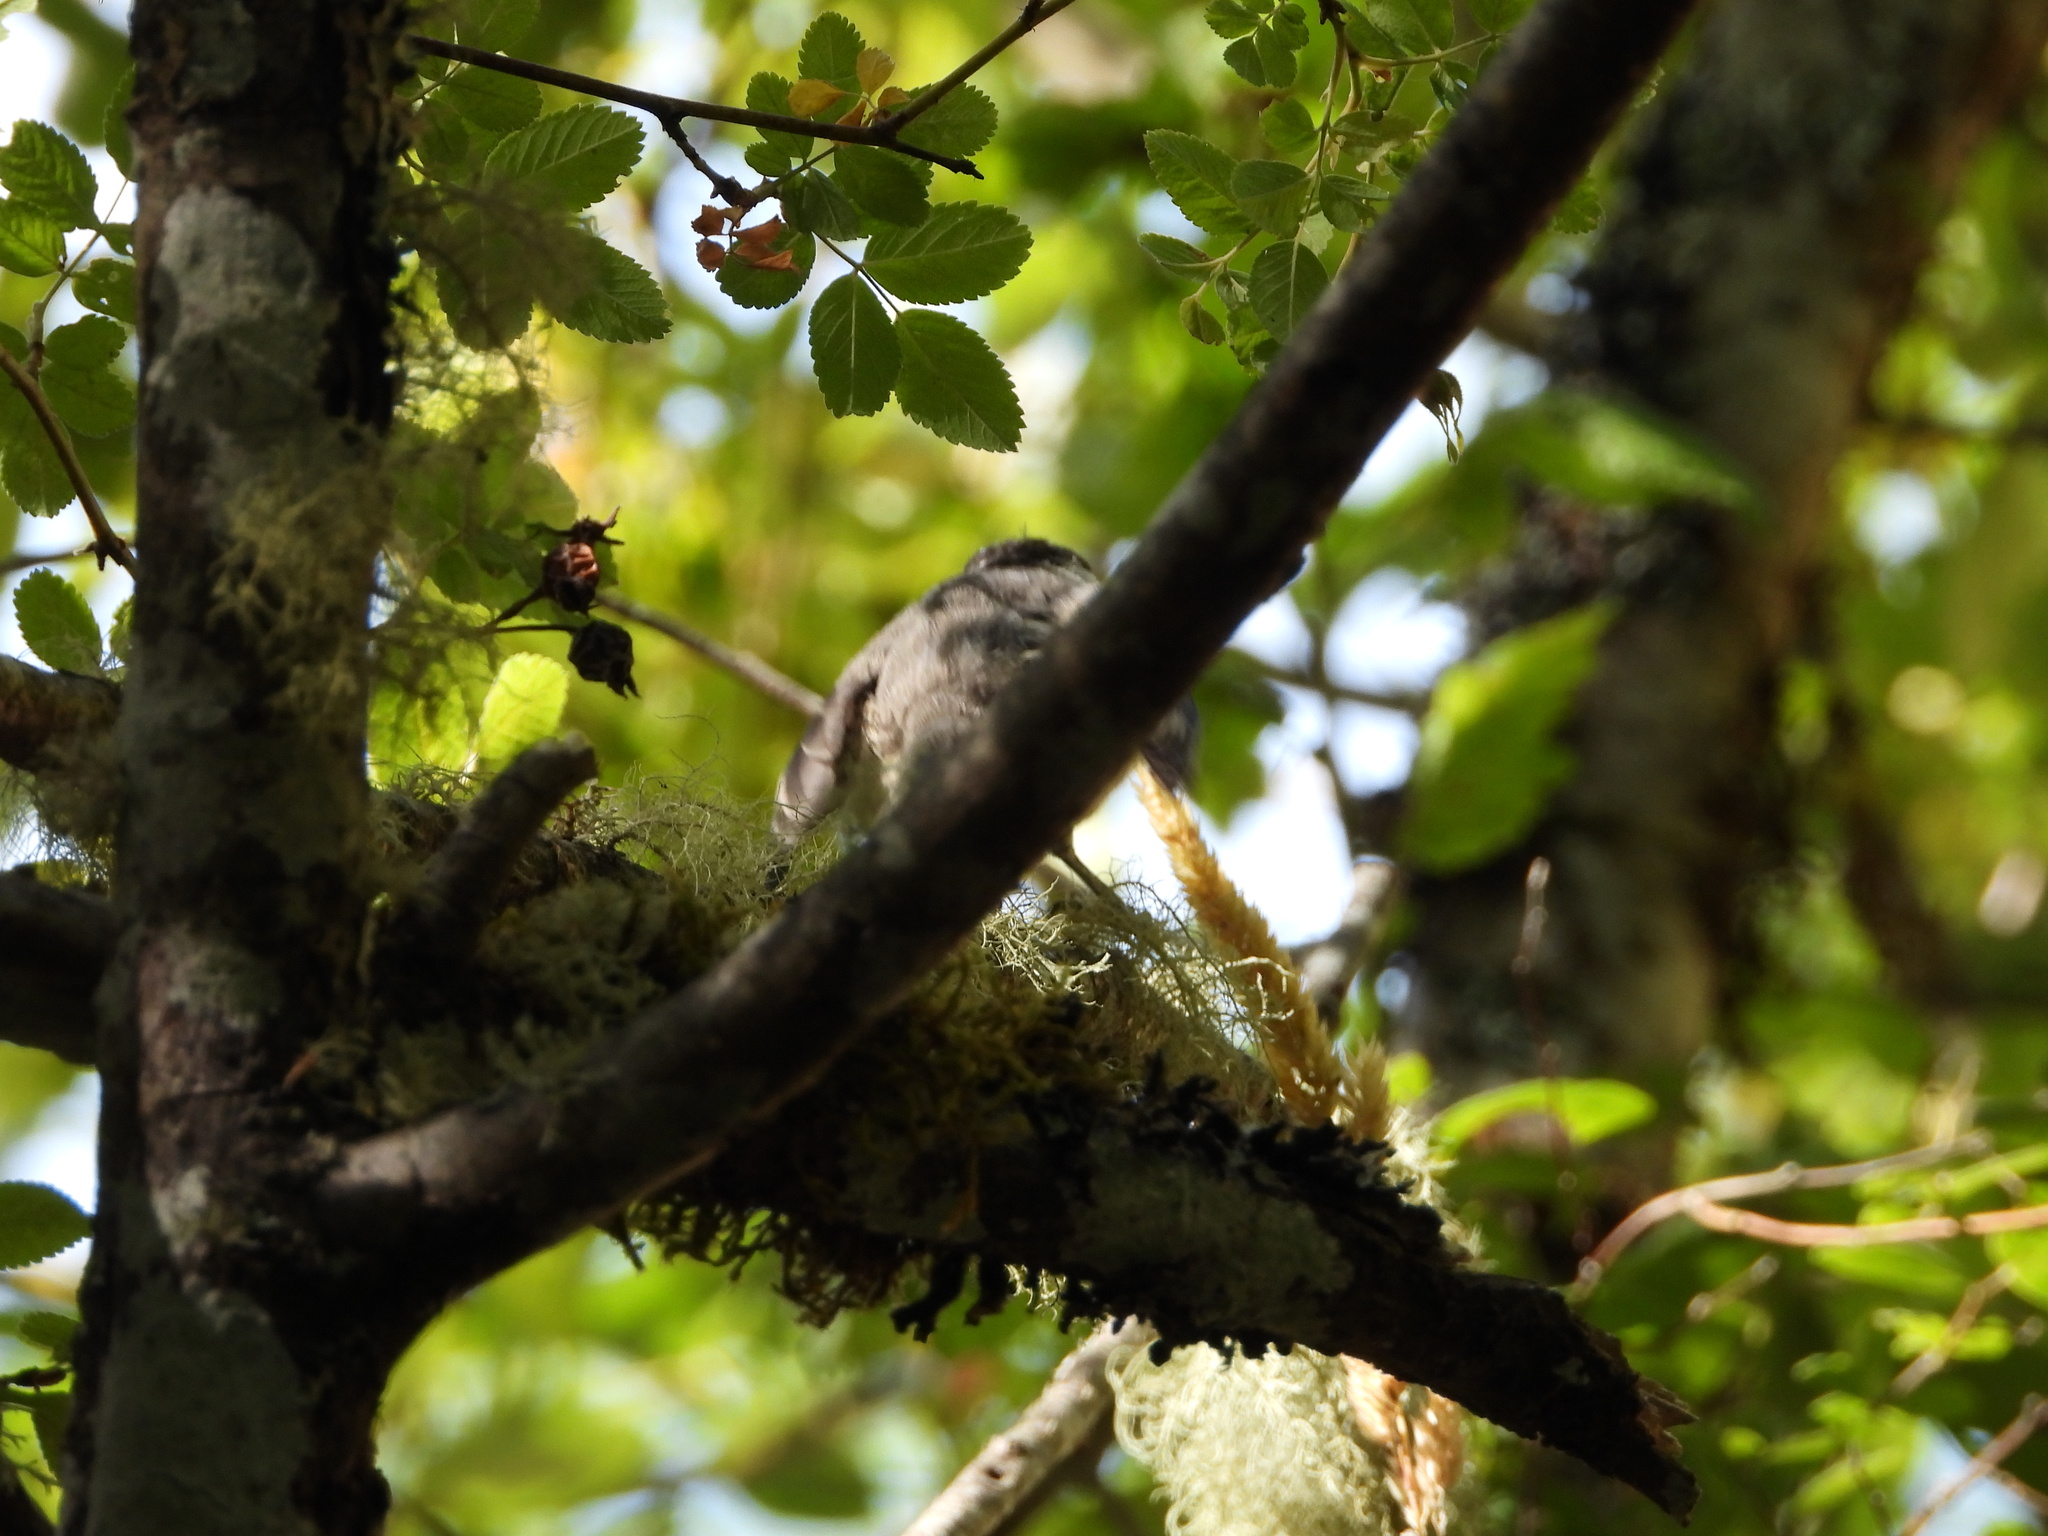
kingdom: Animalia
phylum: Chordata
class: Aves
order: Passeriformes
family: Paridae
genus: Poecile
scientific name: Poecile atricapillus
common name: Black-capped chickadee
